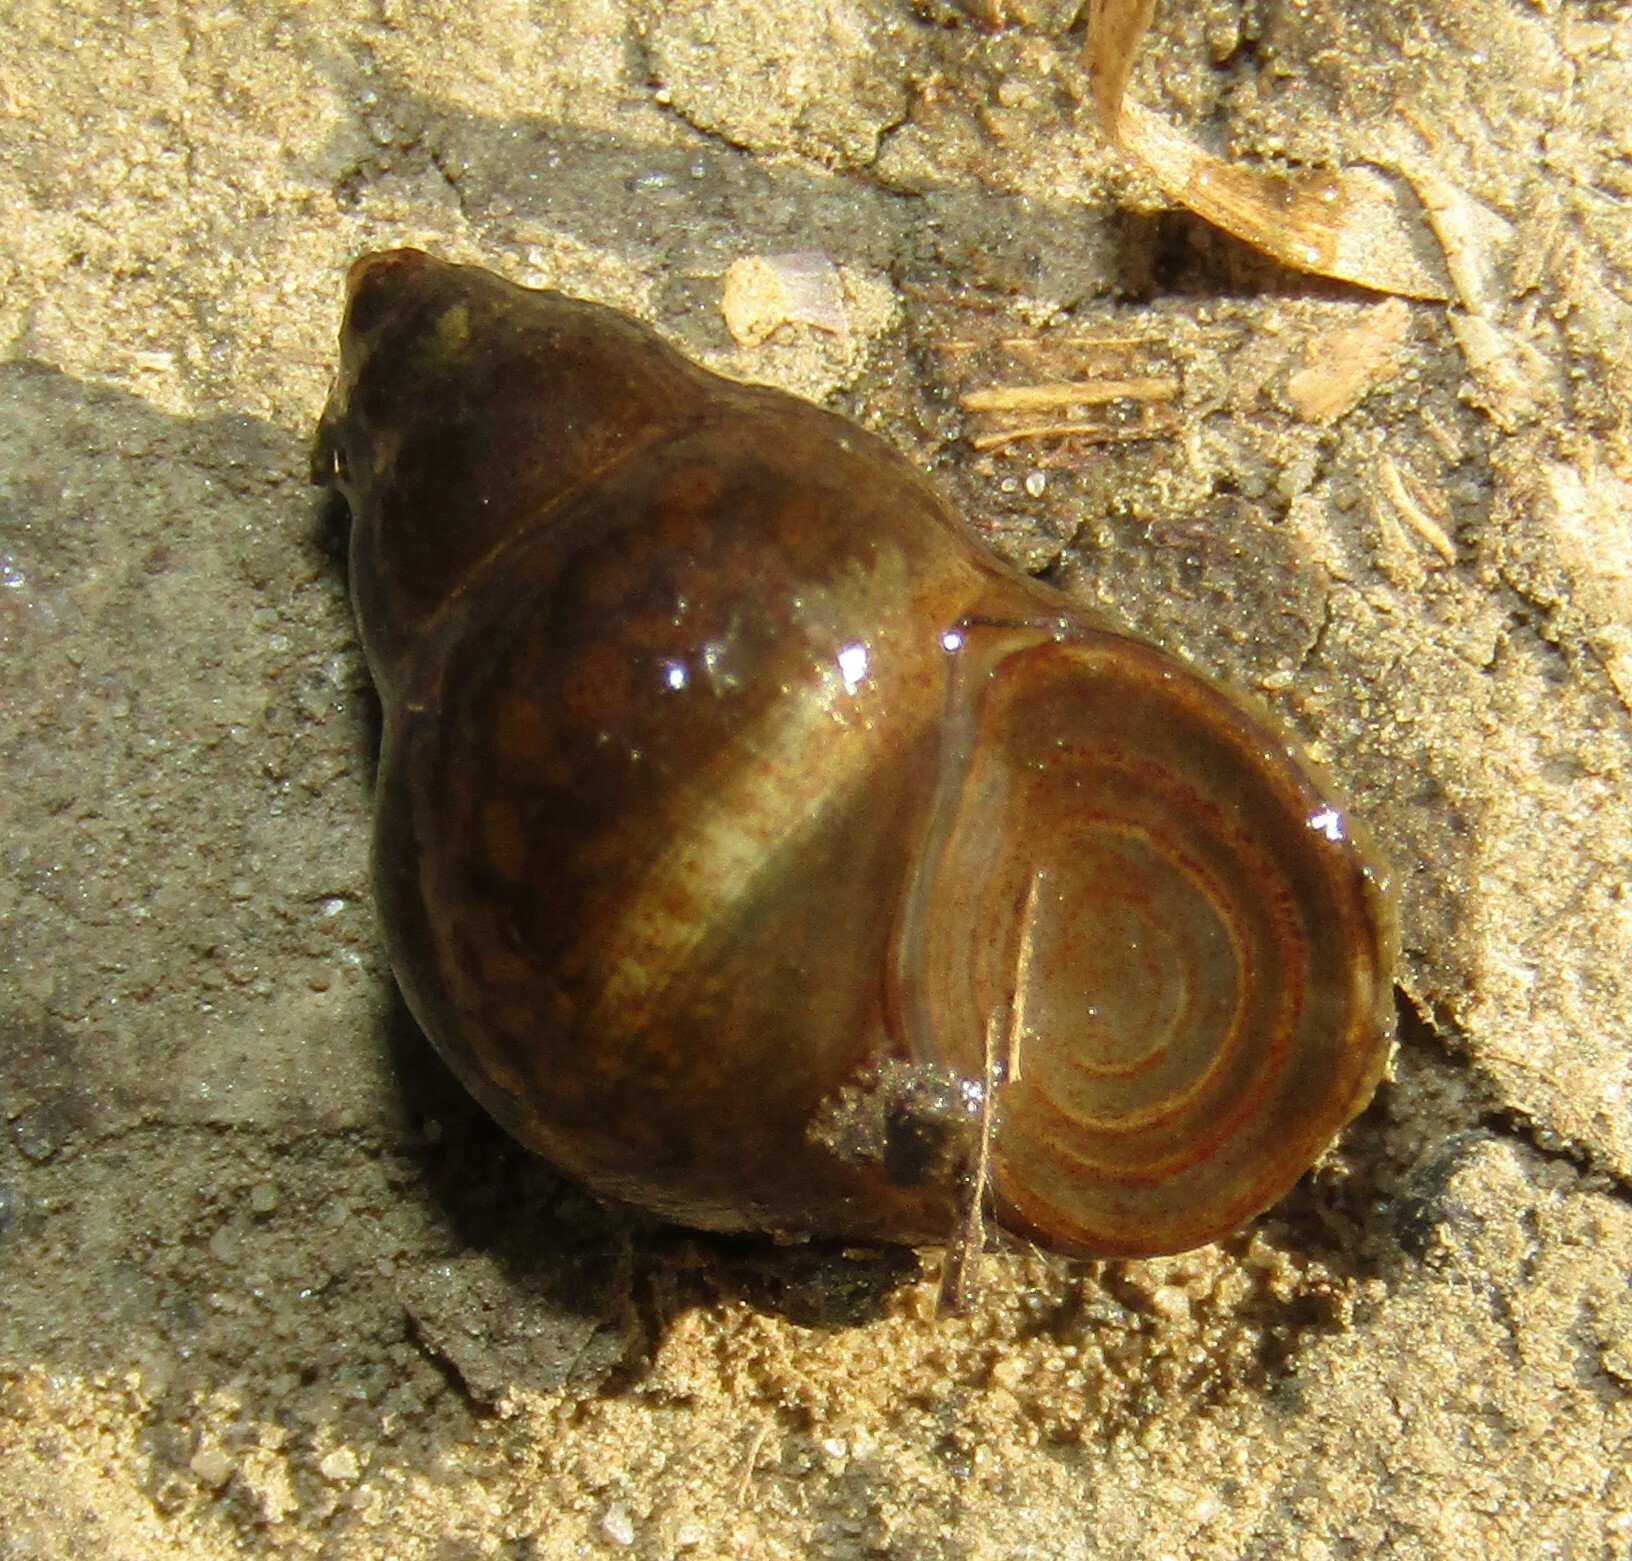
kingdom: Animalia
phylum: Mollusca
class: Gastropoda
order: Littorinimorpha
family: Bithyniidae
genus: Bithynia
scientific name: Bithynia tentaculata
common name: Common bithynia
